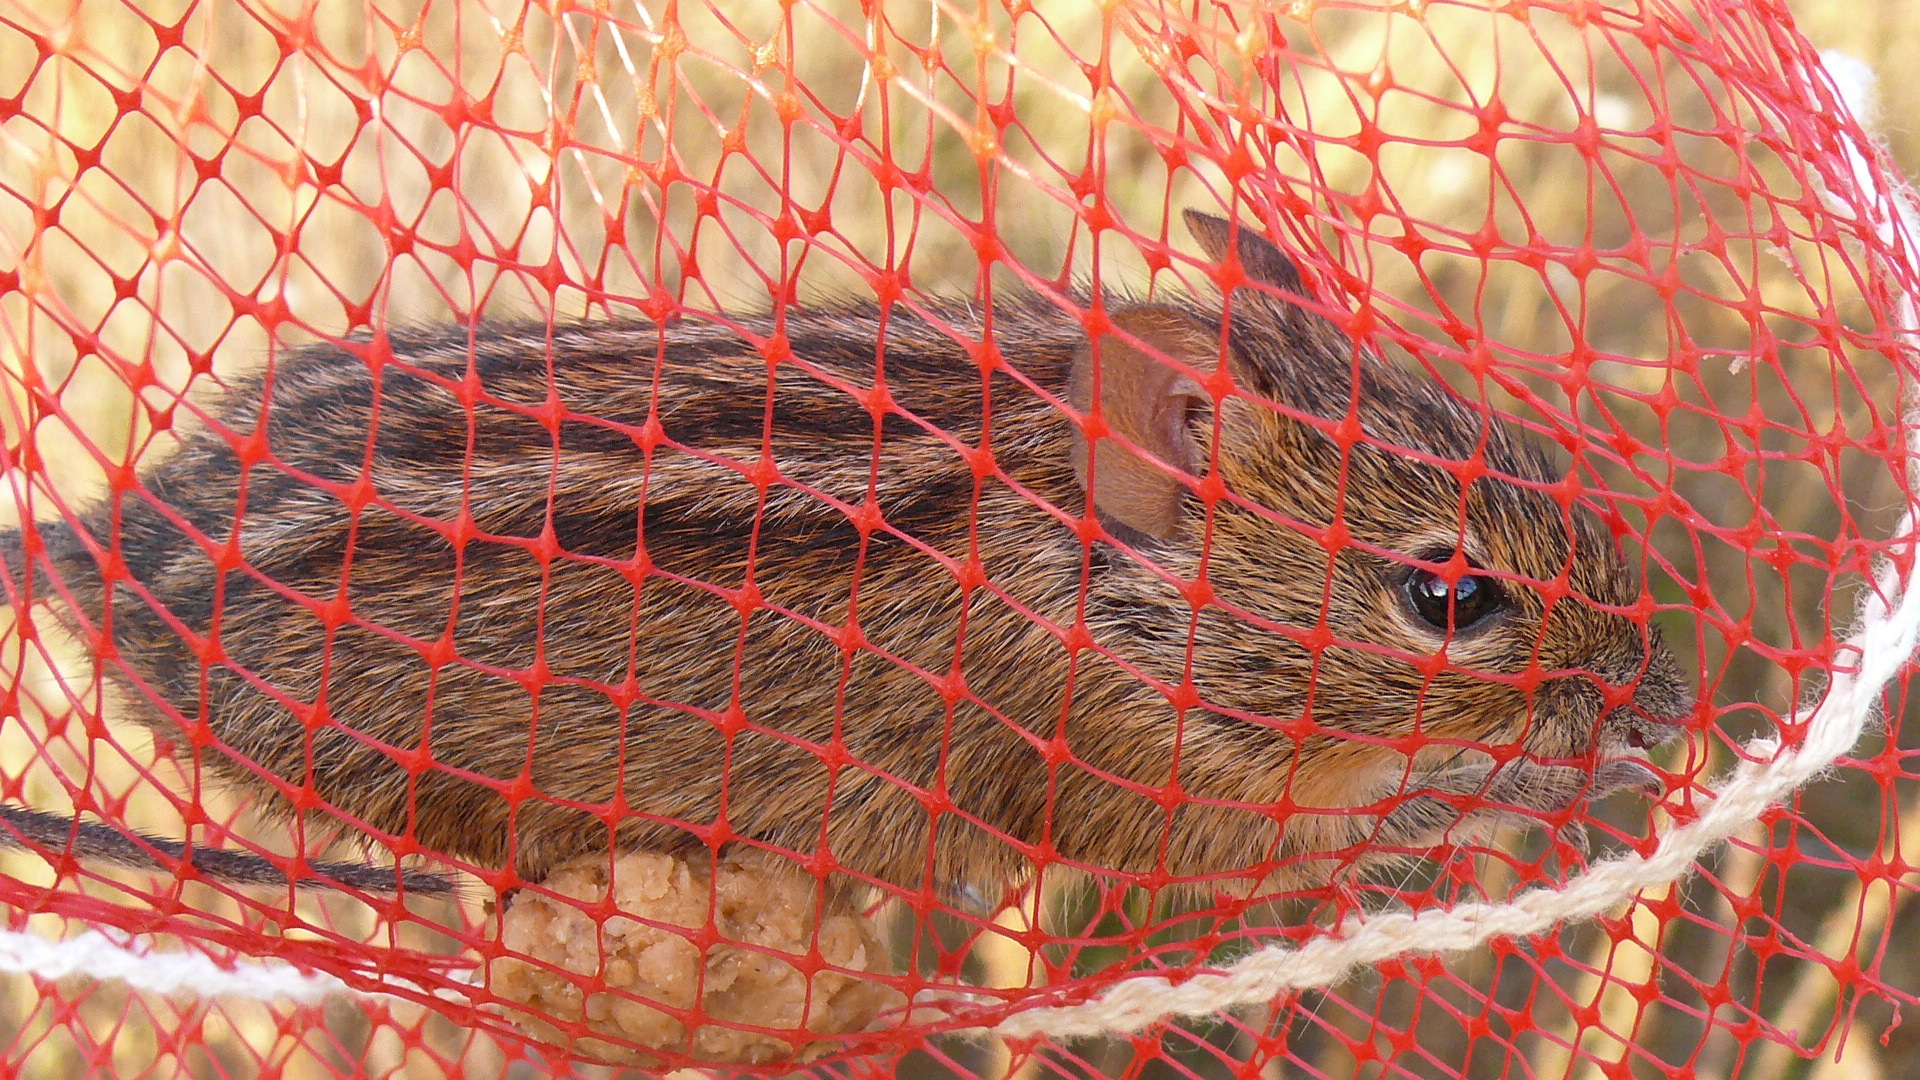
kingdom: Animalia
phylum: Chordata
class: Mammalia
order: Rodentia
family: Muridae
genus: Rhabdomys
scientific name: Rhabdomys pumilio
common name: Xeric four-striped grass rat
